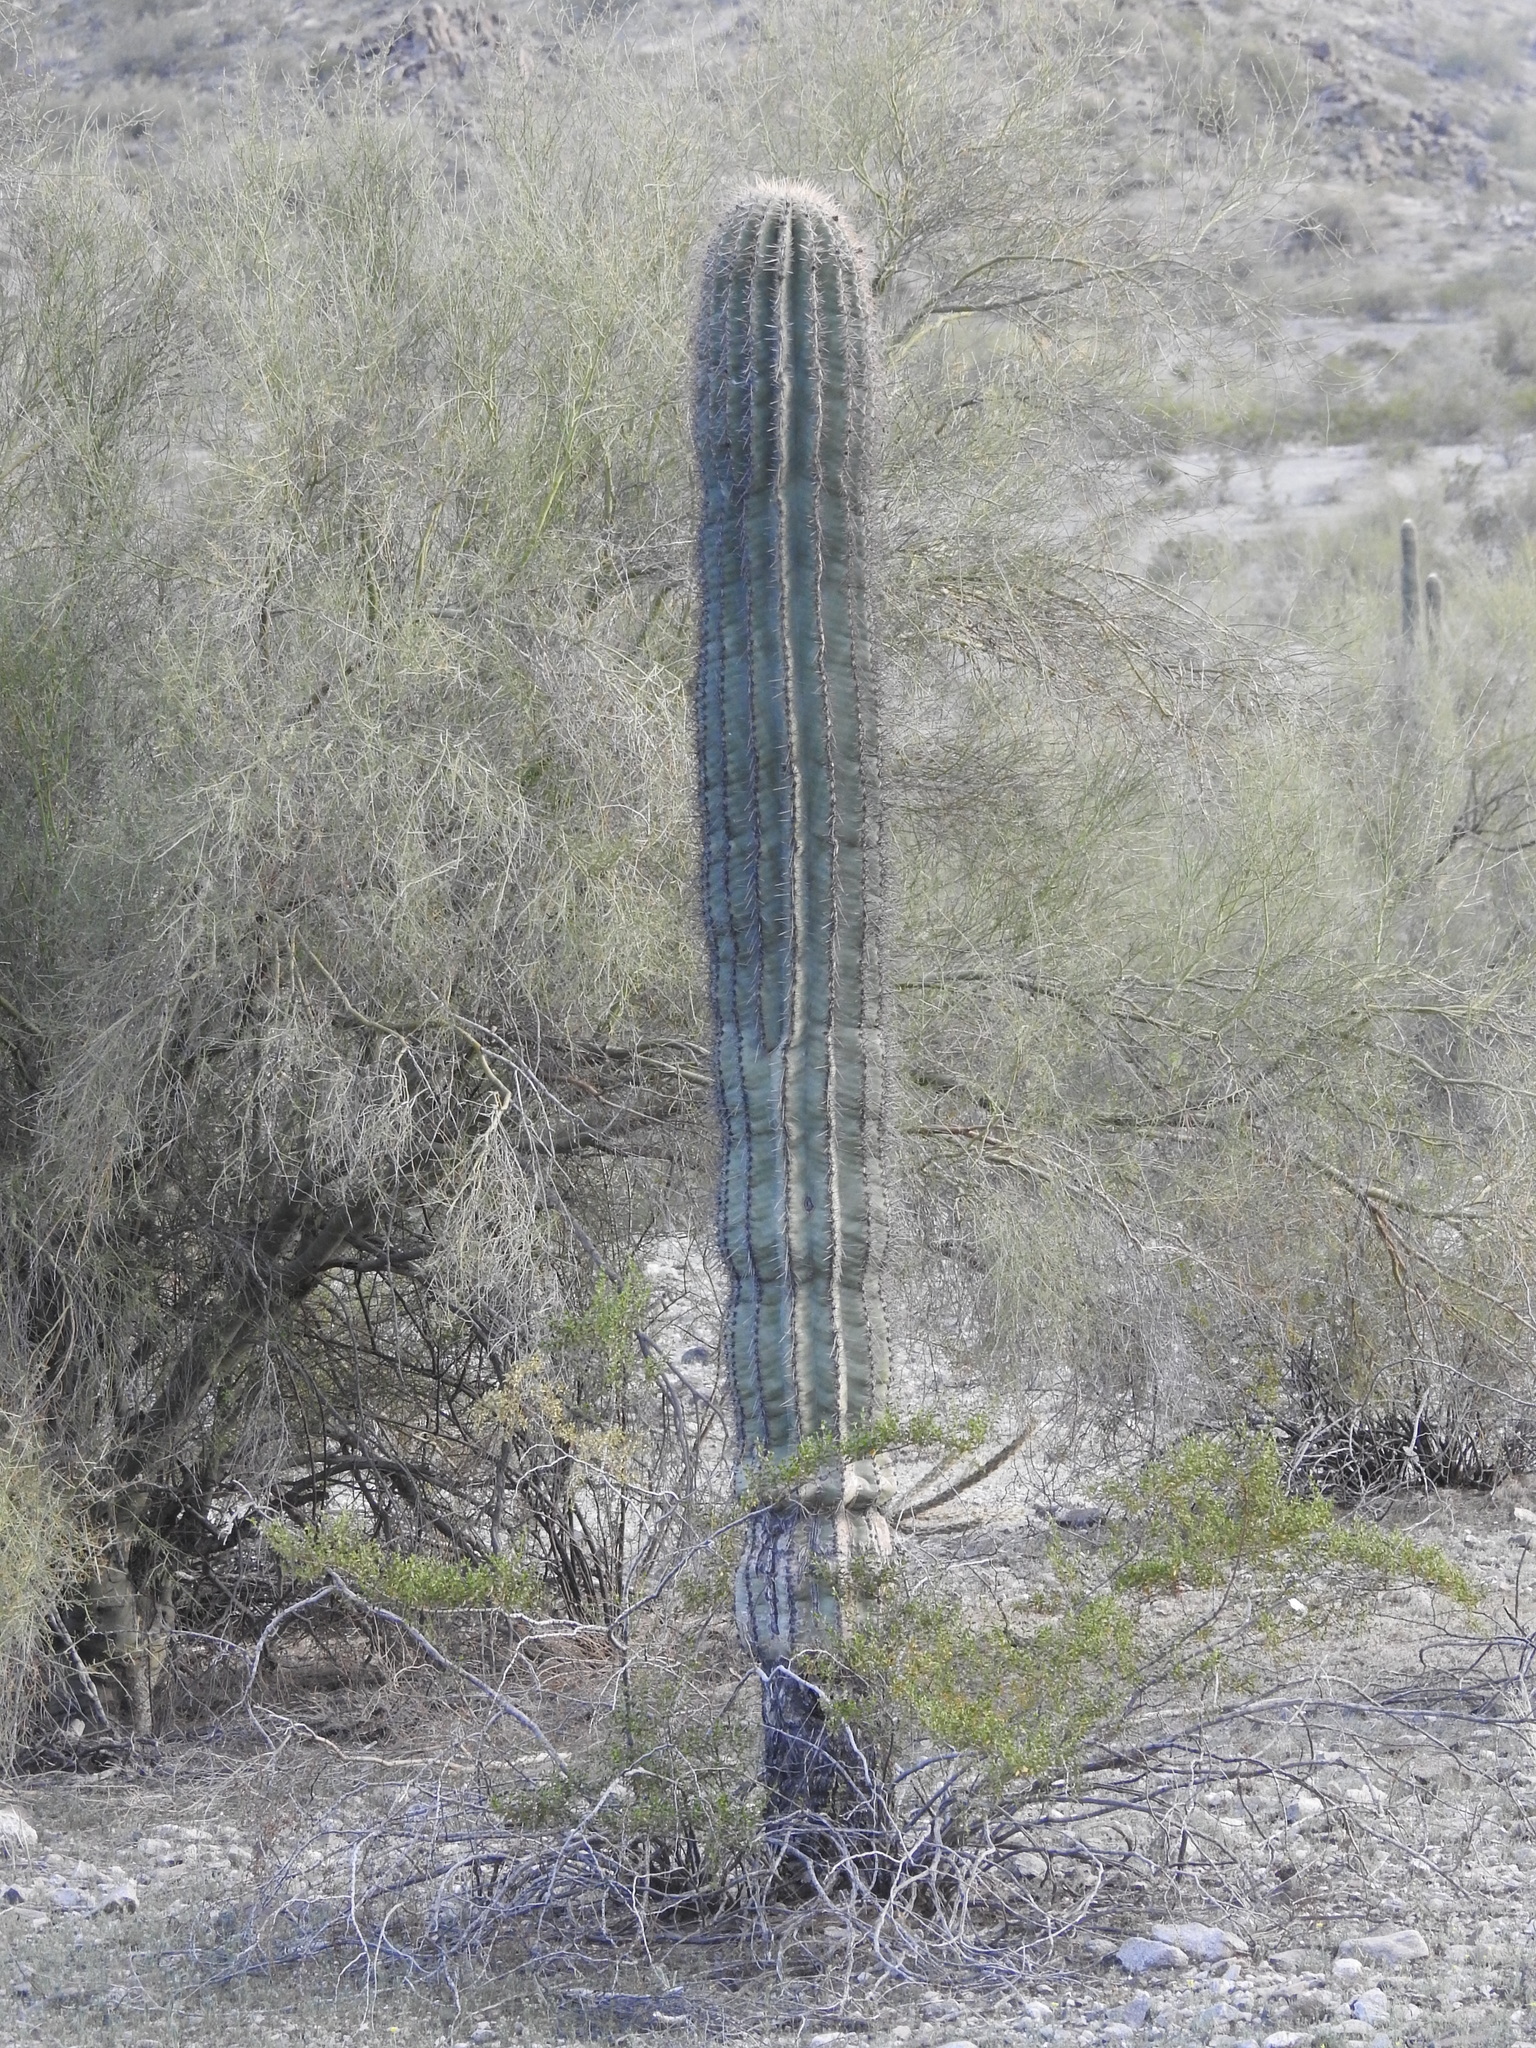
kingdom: Plantae
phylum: Tracheophyta
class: Magnoliopsida
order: Caryophyllales
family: Cactaceae
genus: Carnegiea
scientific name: Carnegiea gigantea
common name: Saguaro
